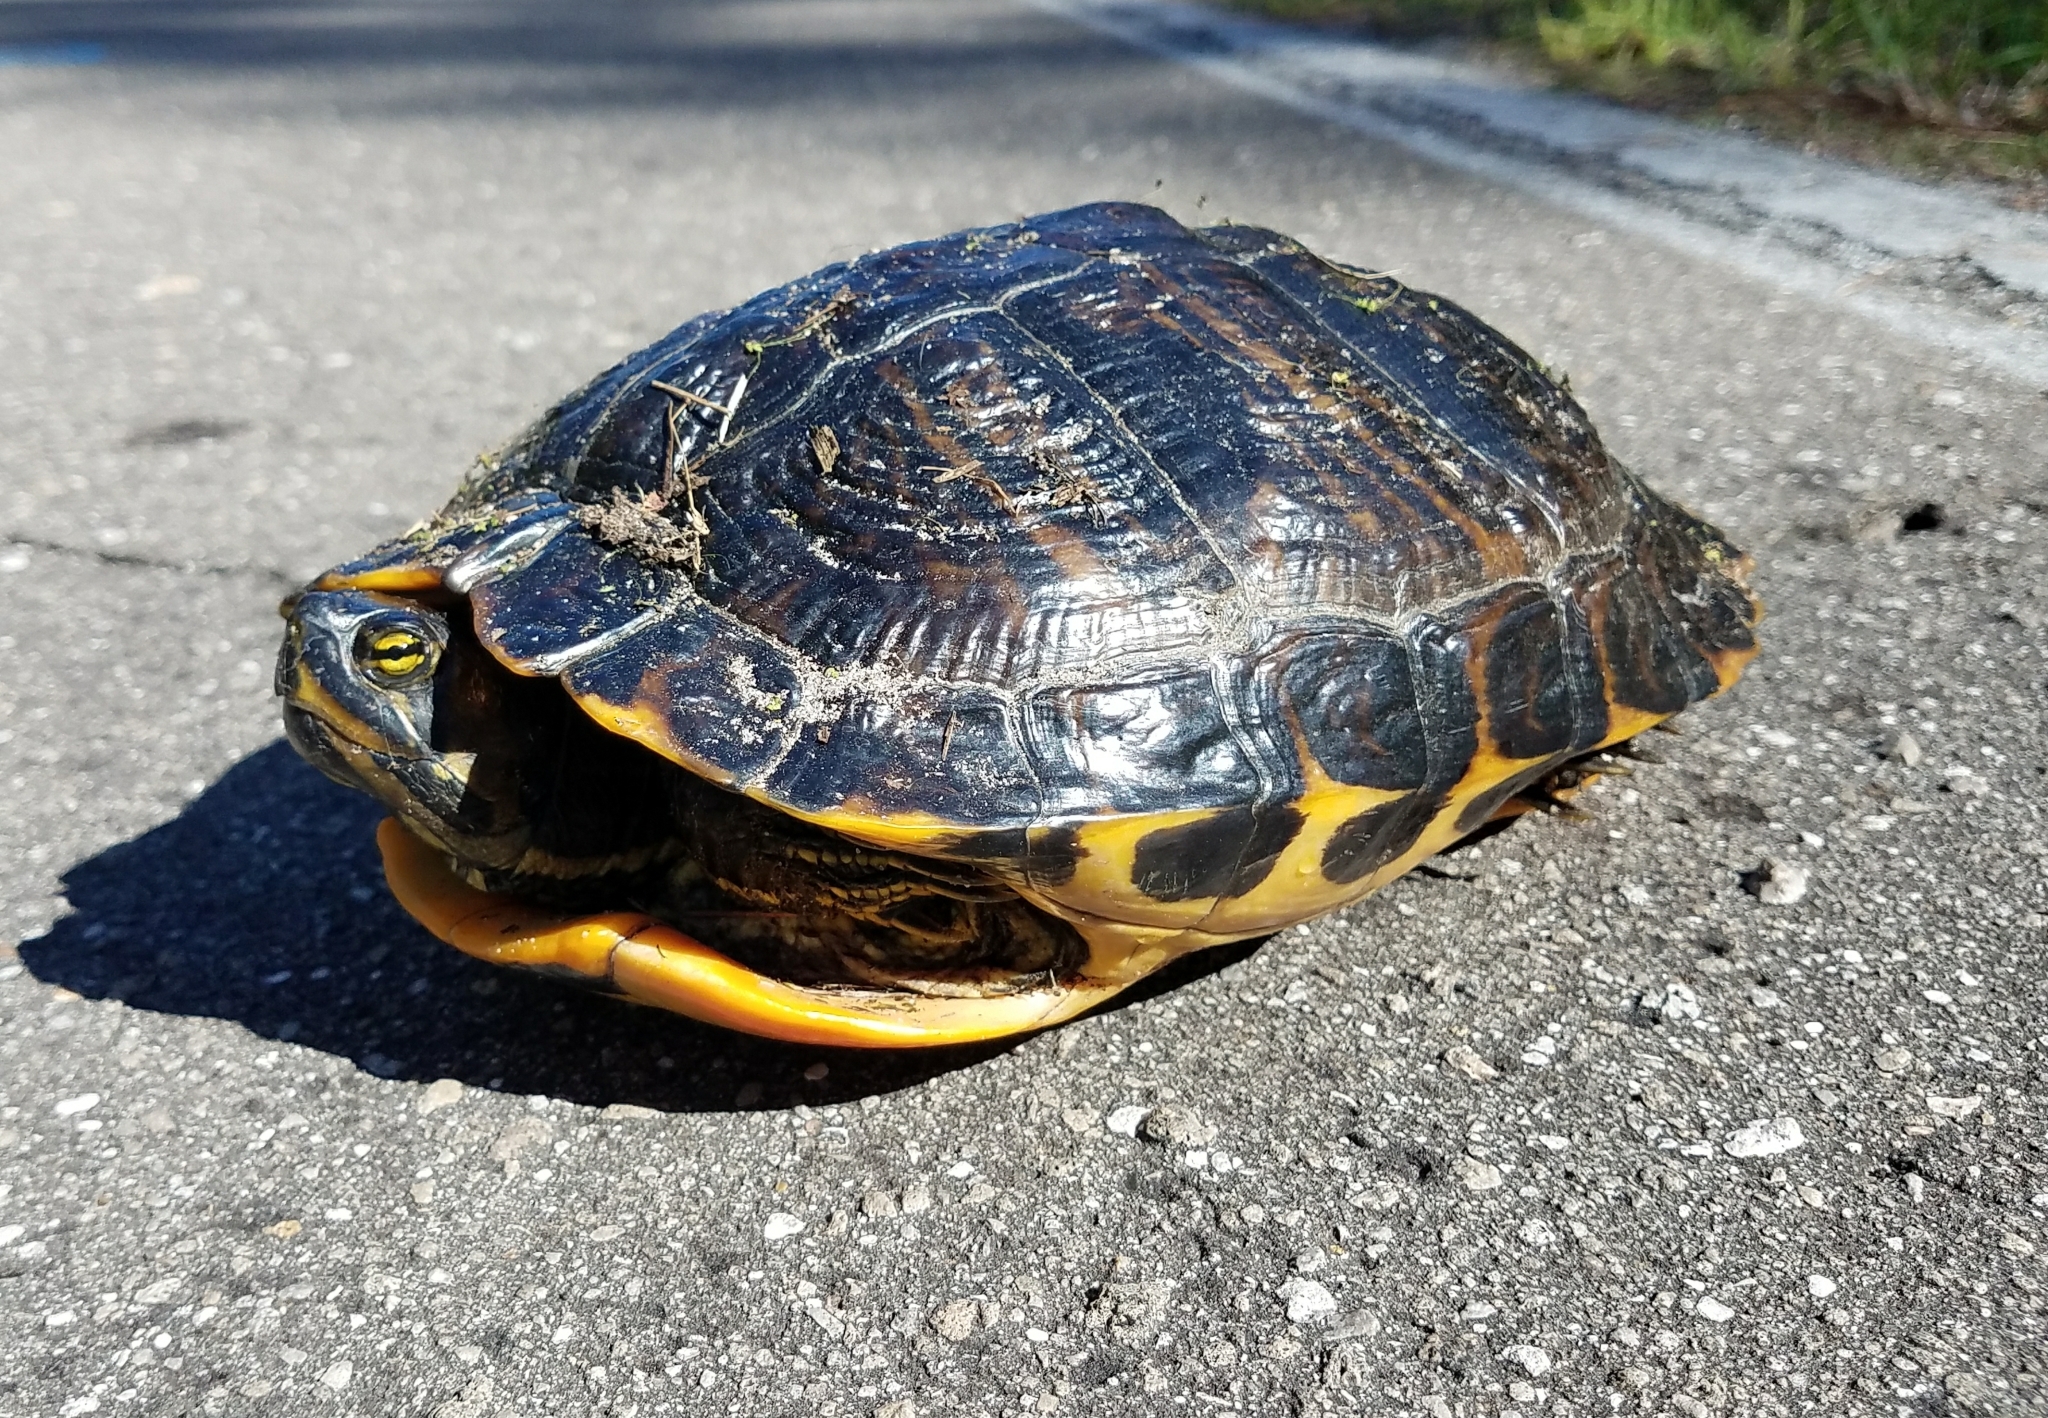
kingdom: Animalia
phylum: Chordata
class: Testudines
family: Emydidae
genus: Trachemys
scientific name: Trachemys scripta
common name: Slider
